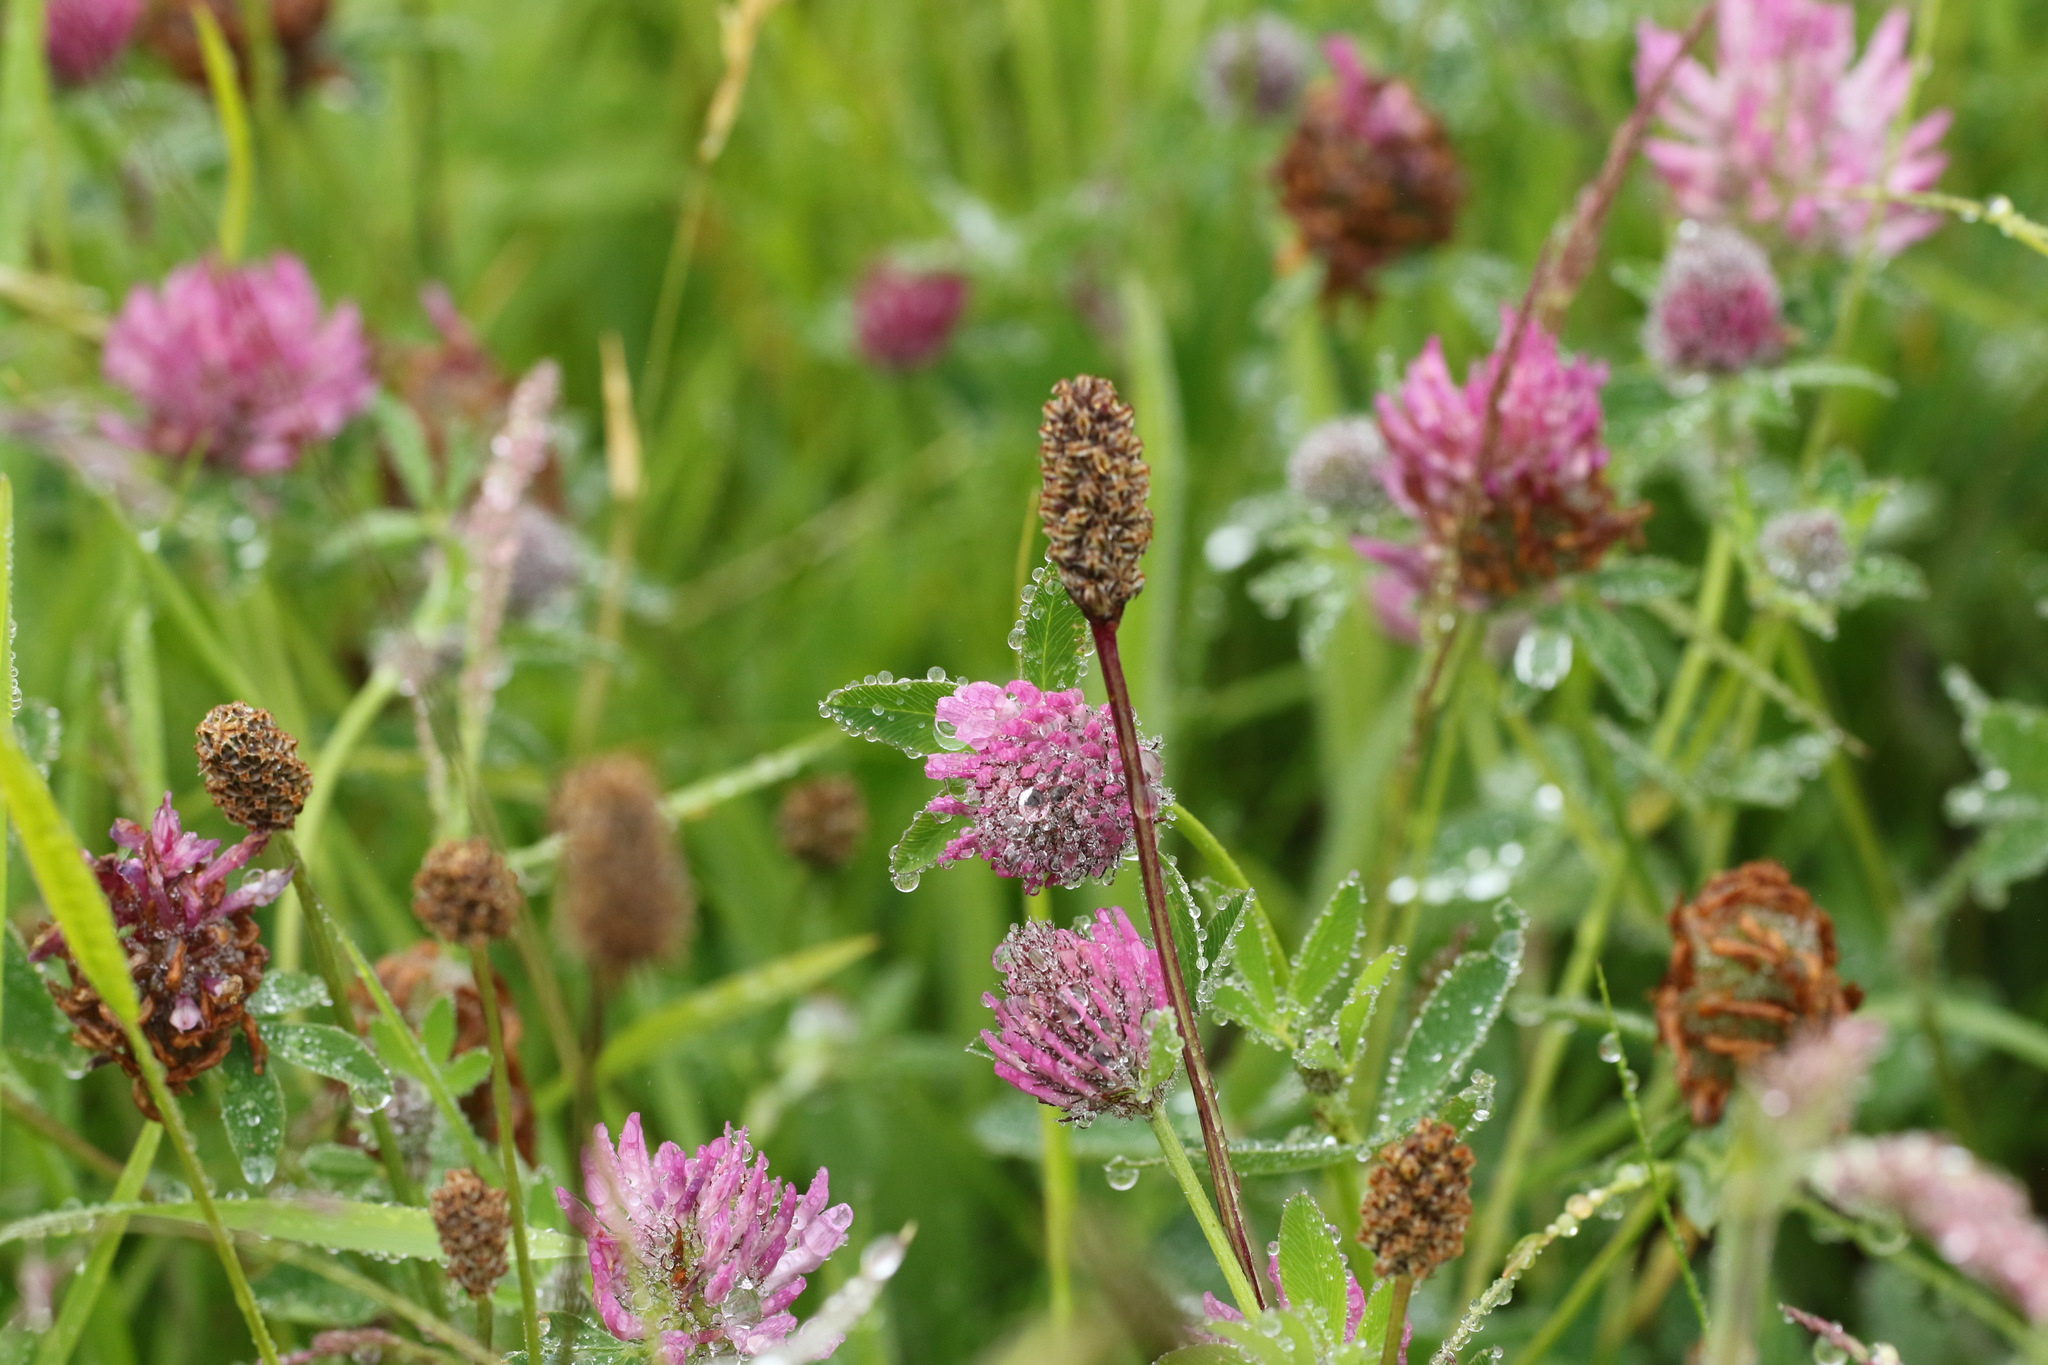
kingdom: Plantae
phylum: Tracheophyta
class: Magnoliopsida
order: Fabales
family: Fabaceae
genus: Trifolium
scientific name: Trifolium pratense
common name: Red clover
